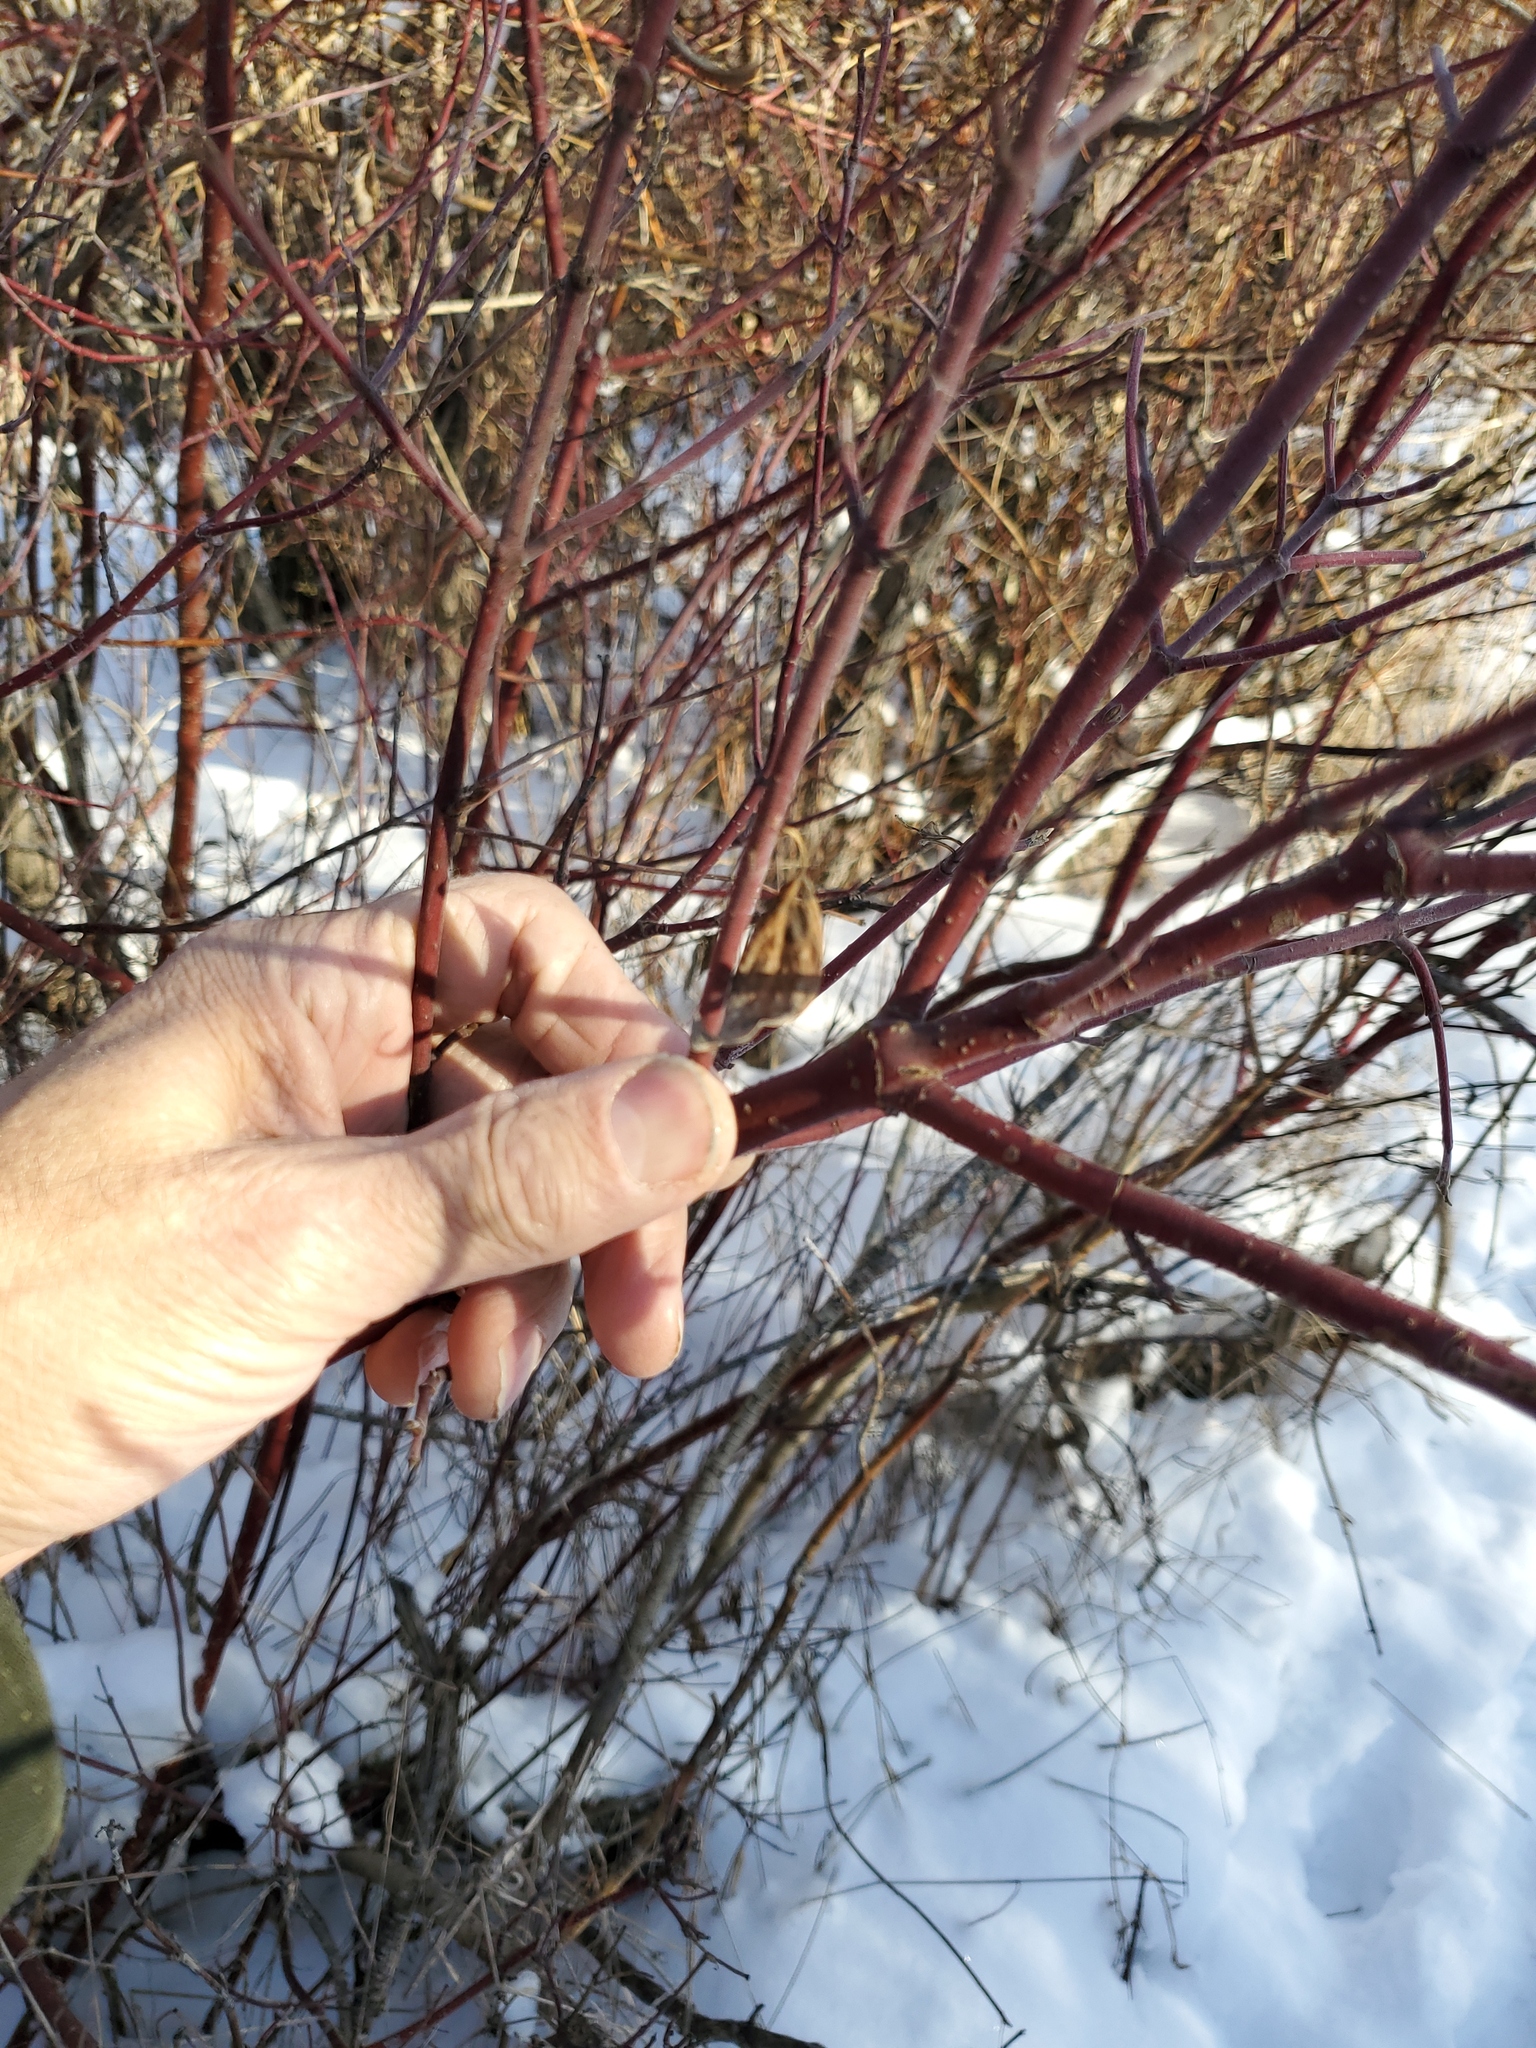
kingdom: Plantae
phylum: Tracheophyta
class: Magnoliopsida
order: Cornales
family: Cornaceae
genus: Cornus
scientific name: Cornus sericea
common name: Red-osier dogwood
